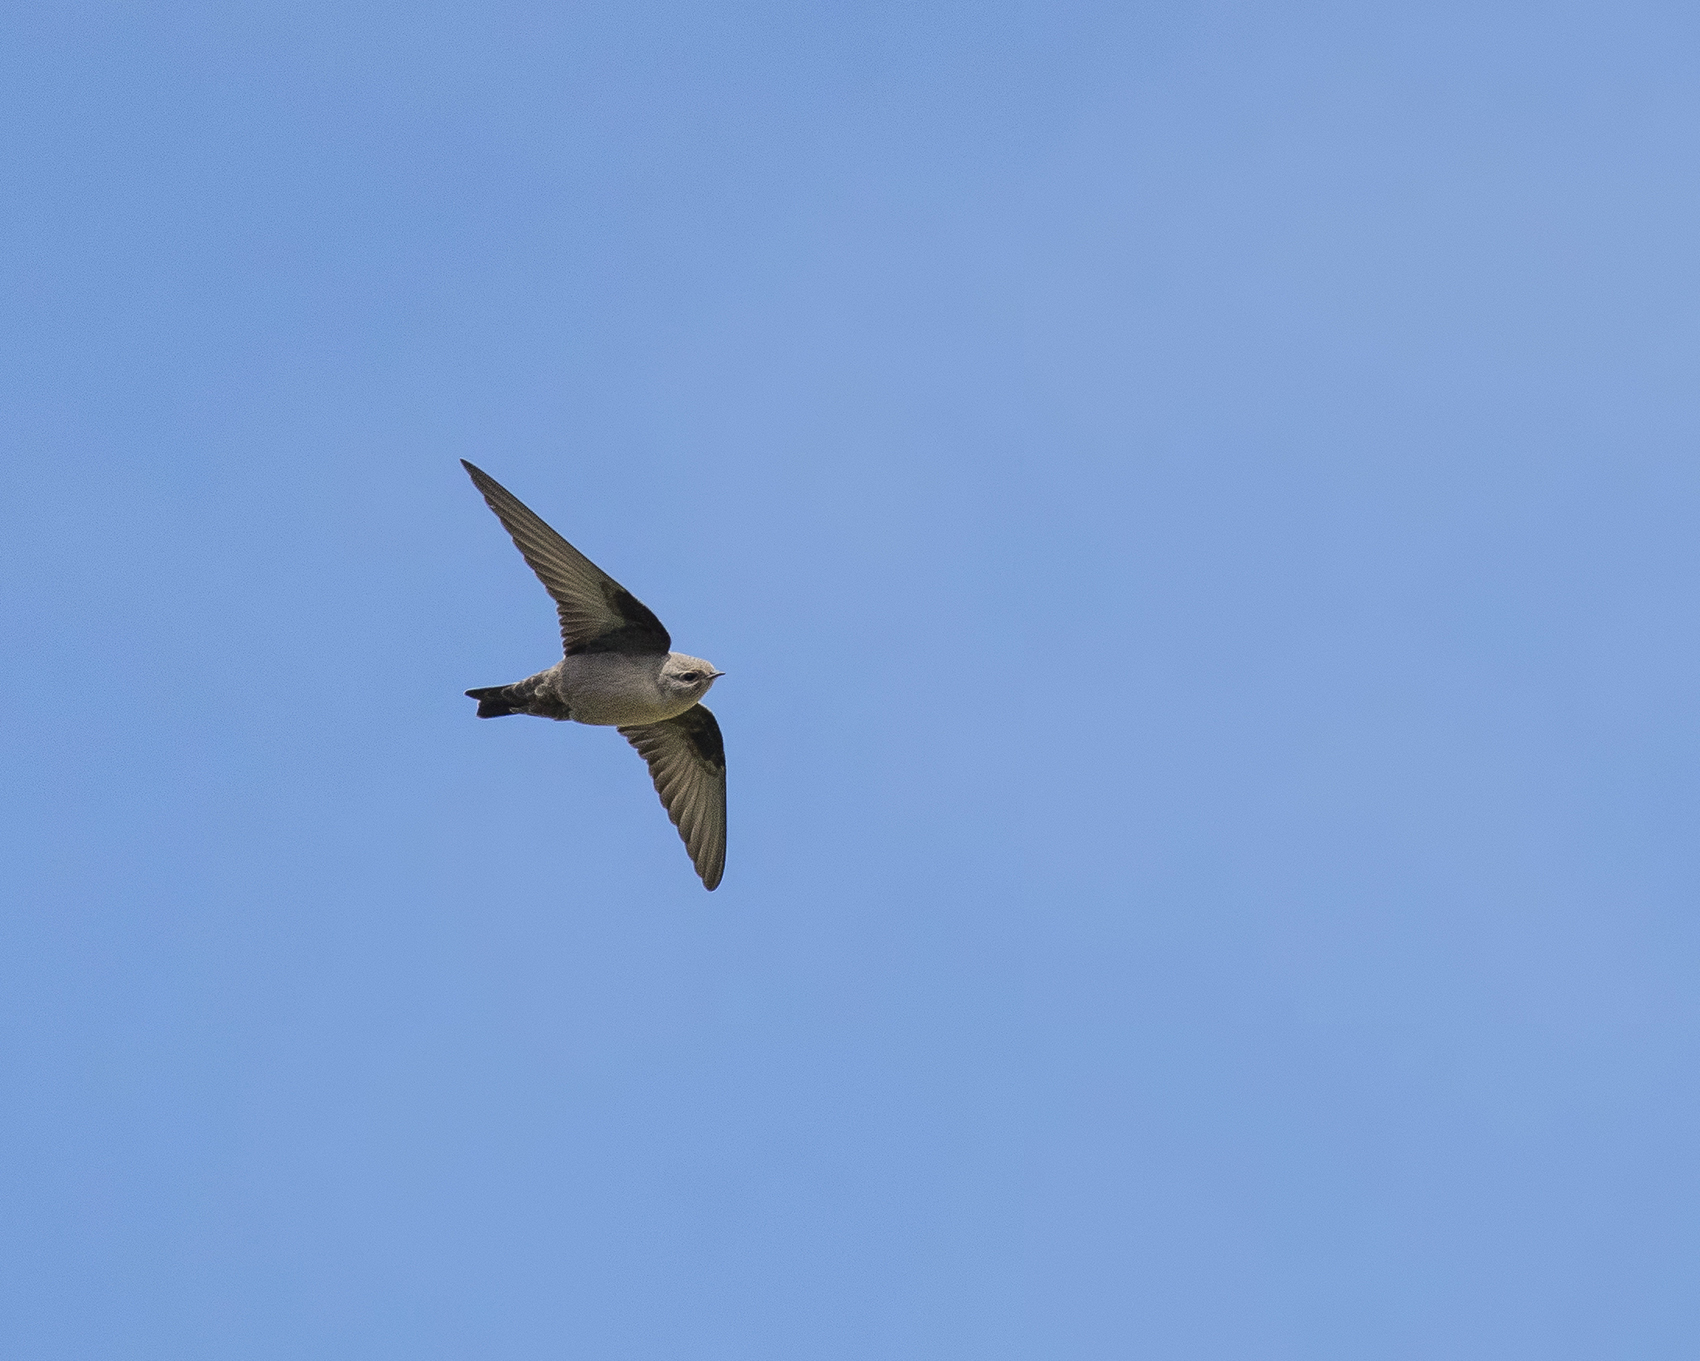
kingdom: Animalia
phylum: Chordata
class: Aves
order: Passeriformes
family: Hirundinidae
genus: Ptyonoprogne
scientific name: Ptyonoprogne rupestris
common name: Eurasian crag martin
